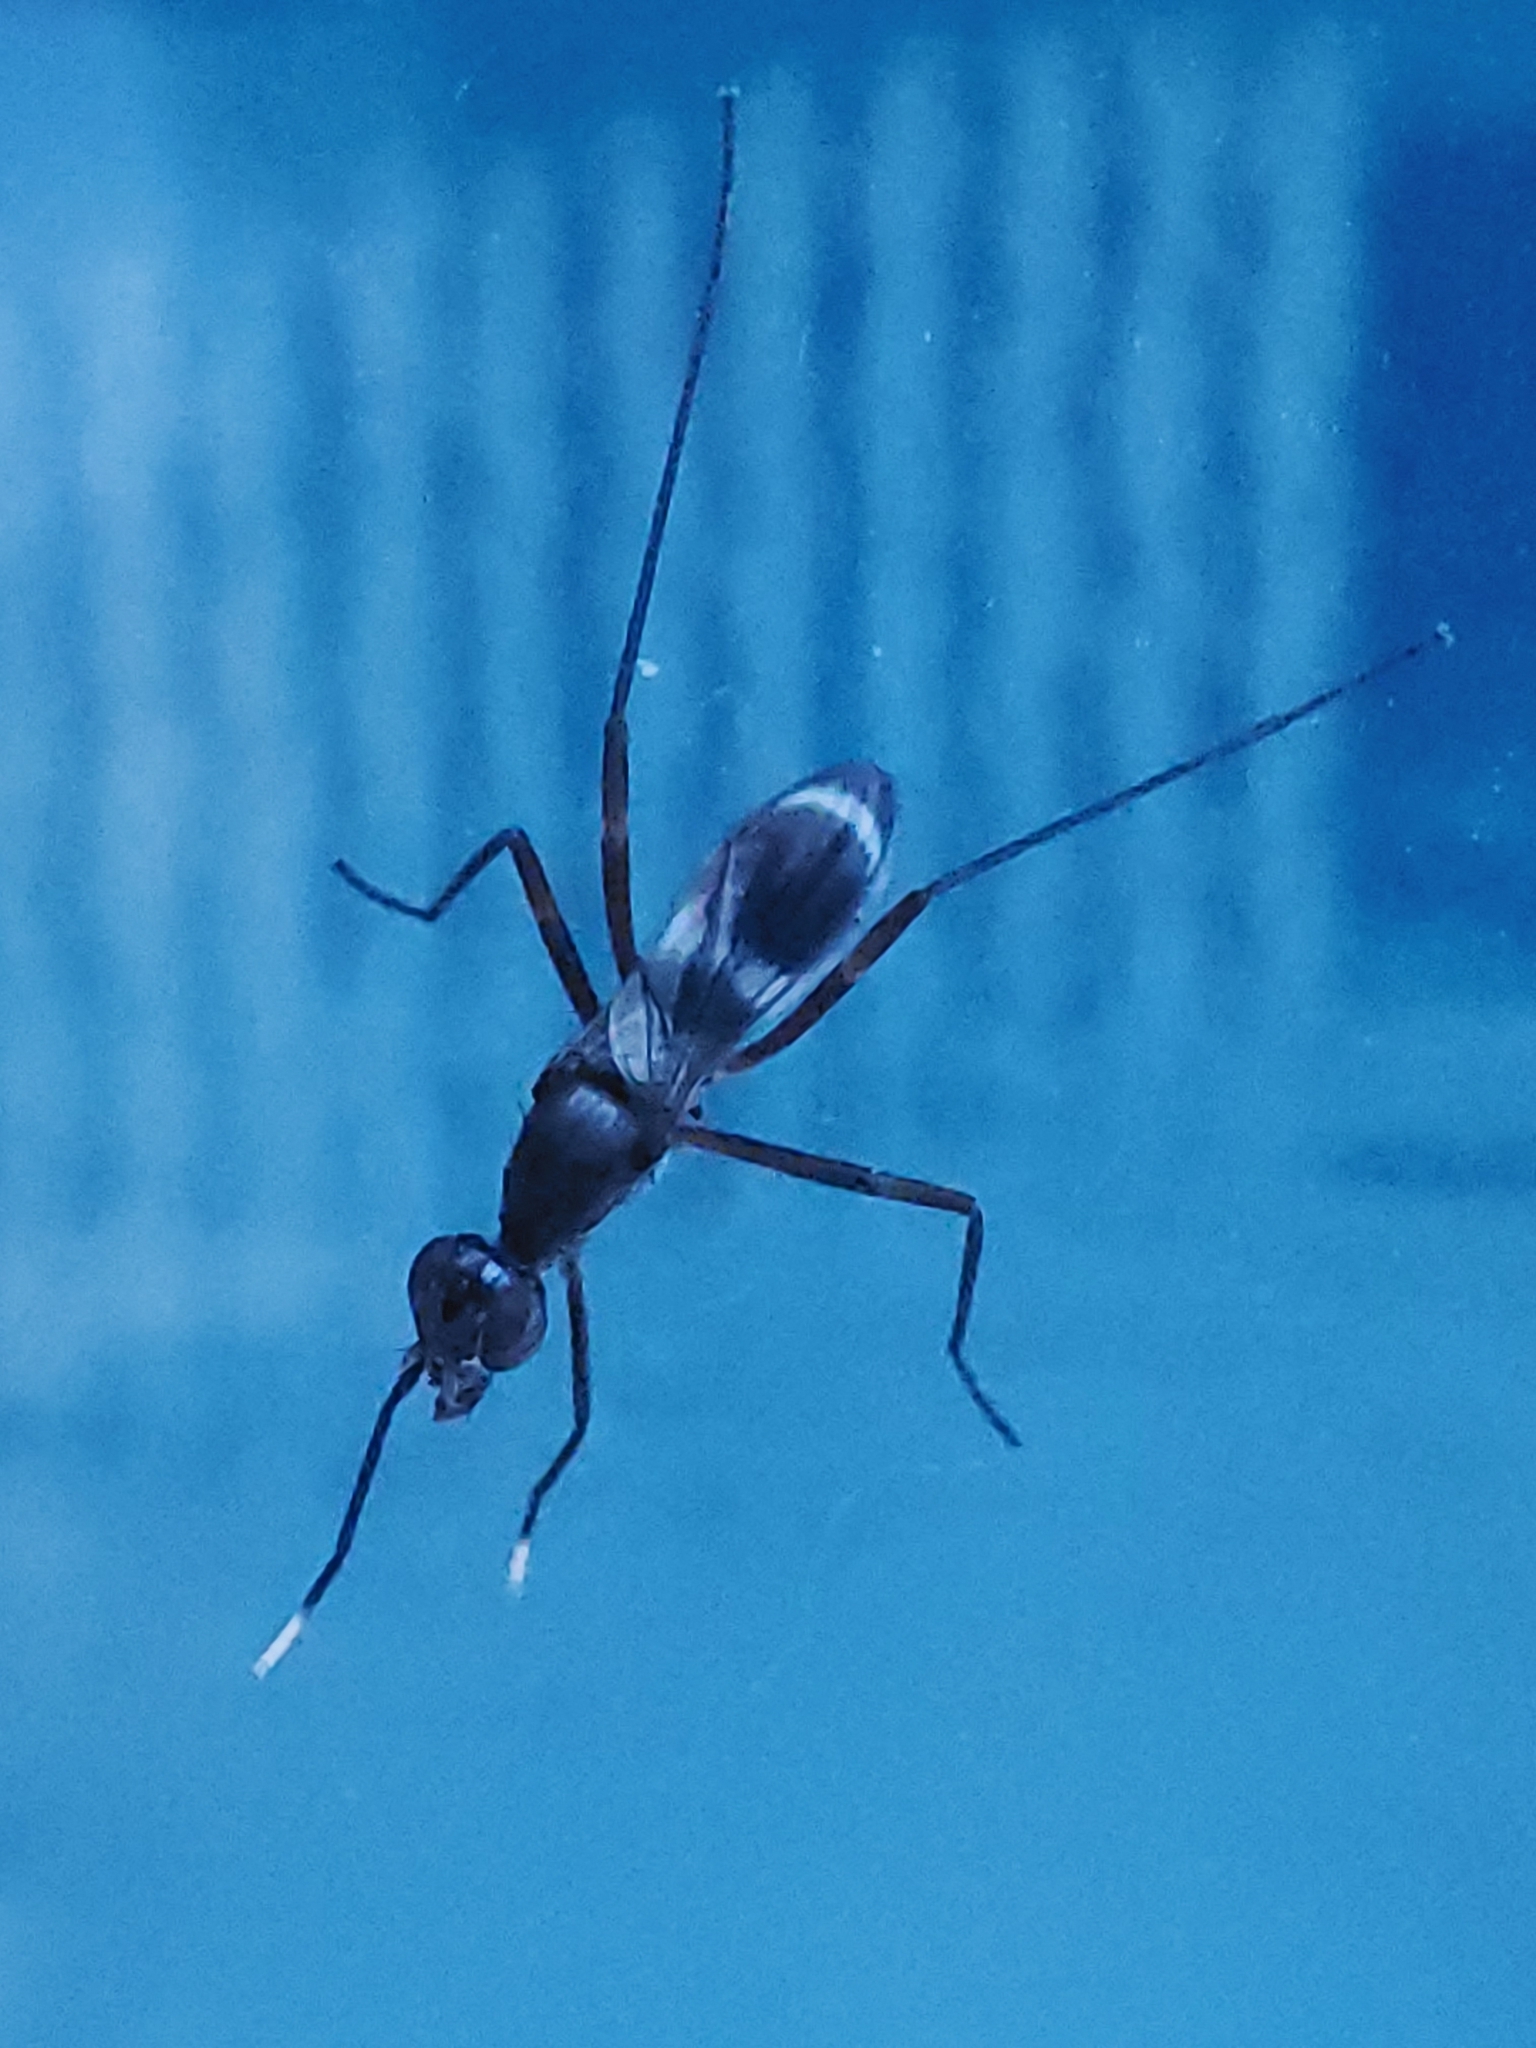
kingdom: Animalia
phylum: Arthropoda
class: Insecta
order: Diptera
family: Micropezidae
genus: Taeniaptera
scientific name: Taeniaptera trivittata
